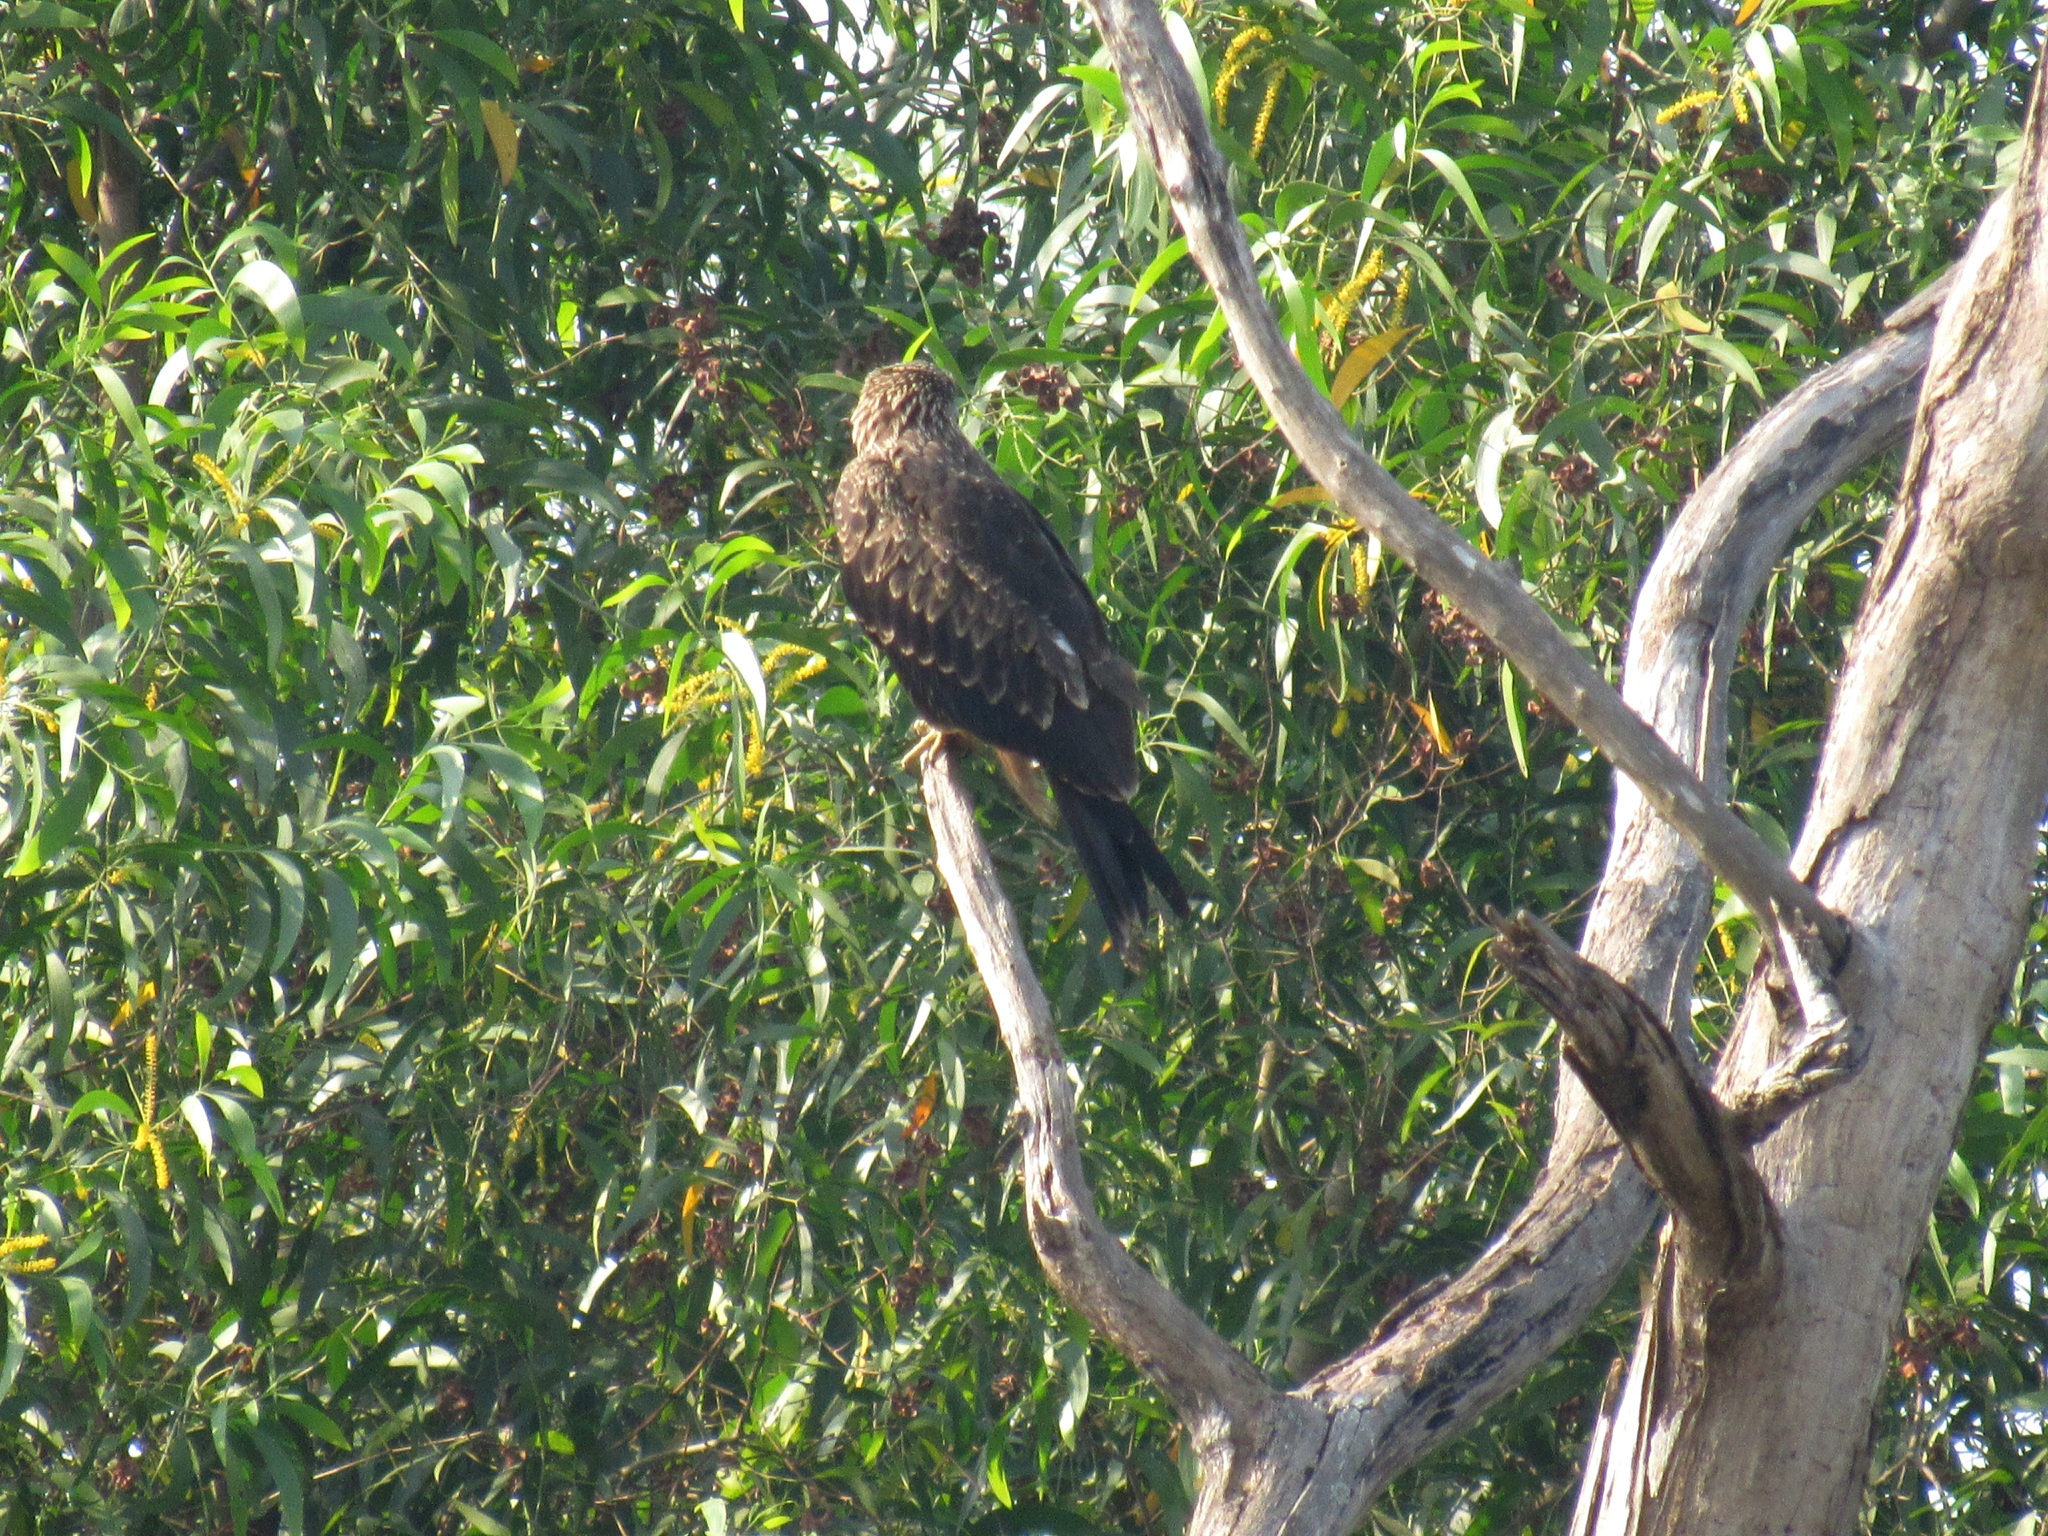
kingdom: Animalia
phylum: Chordata
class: Aves
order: Accipitriformes
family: Accipitridae
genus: Milvus
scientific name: Milvus migrans
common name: Black kite
